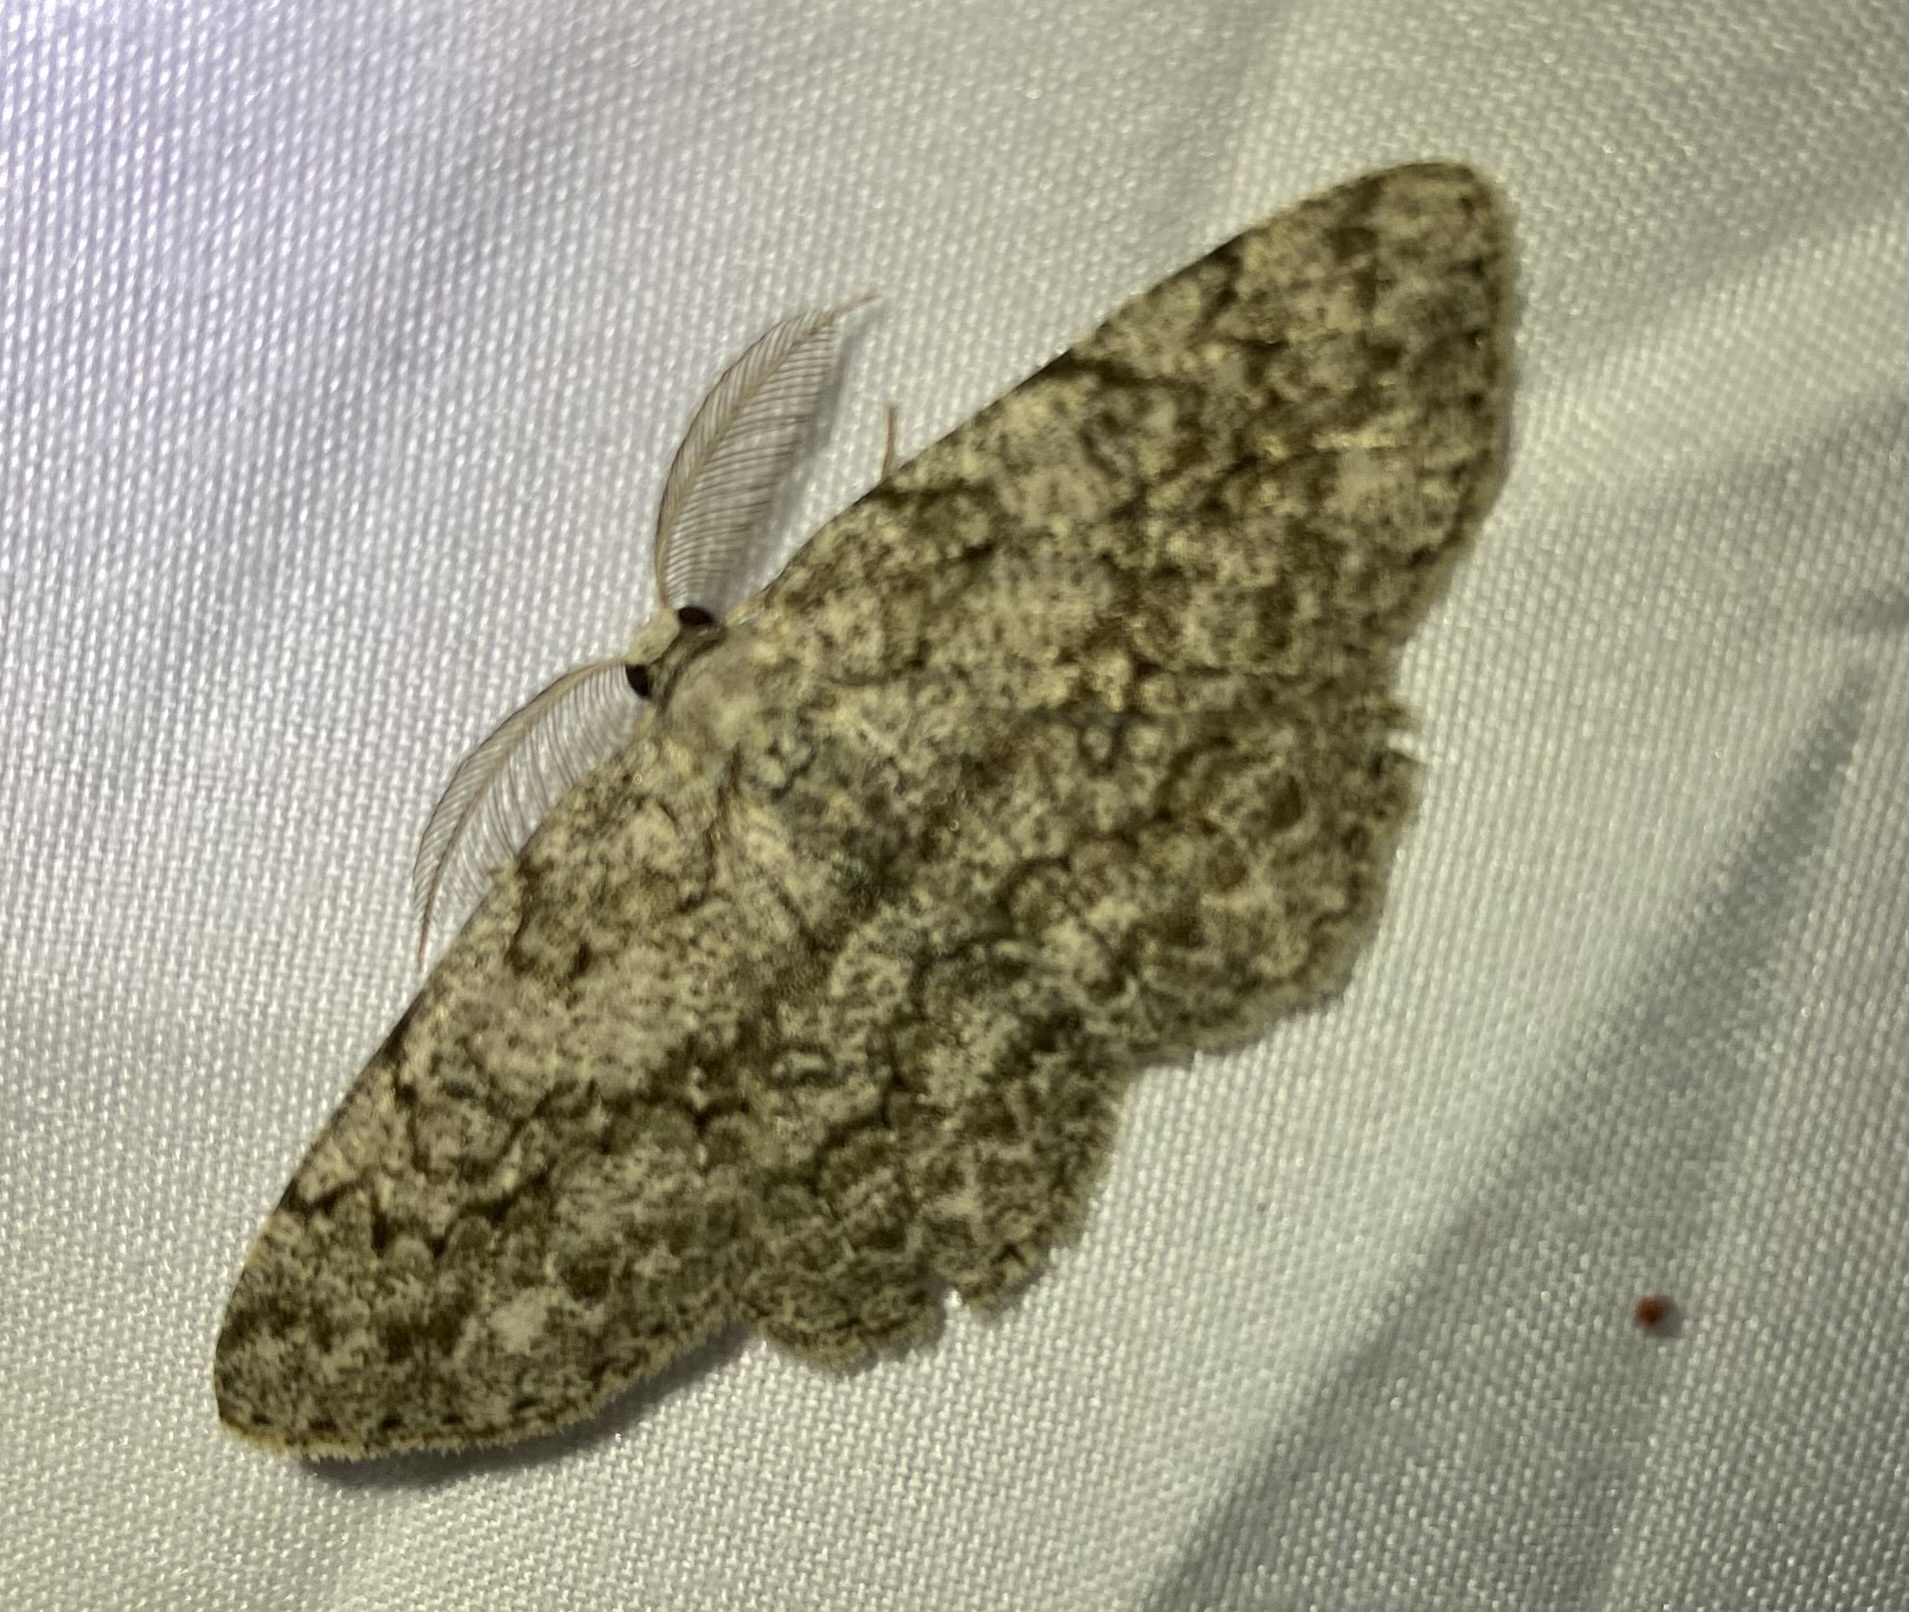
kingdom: Animalia
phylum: Arthropoda
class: Insecta
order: Lepidoptera
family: Geometridae
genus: Hypomecis
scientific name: Hypomecis umbrosaria
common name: Umber moth
